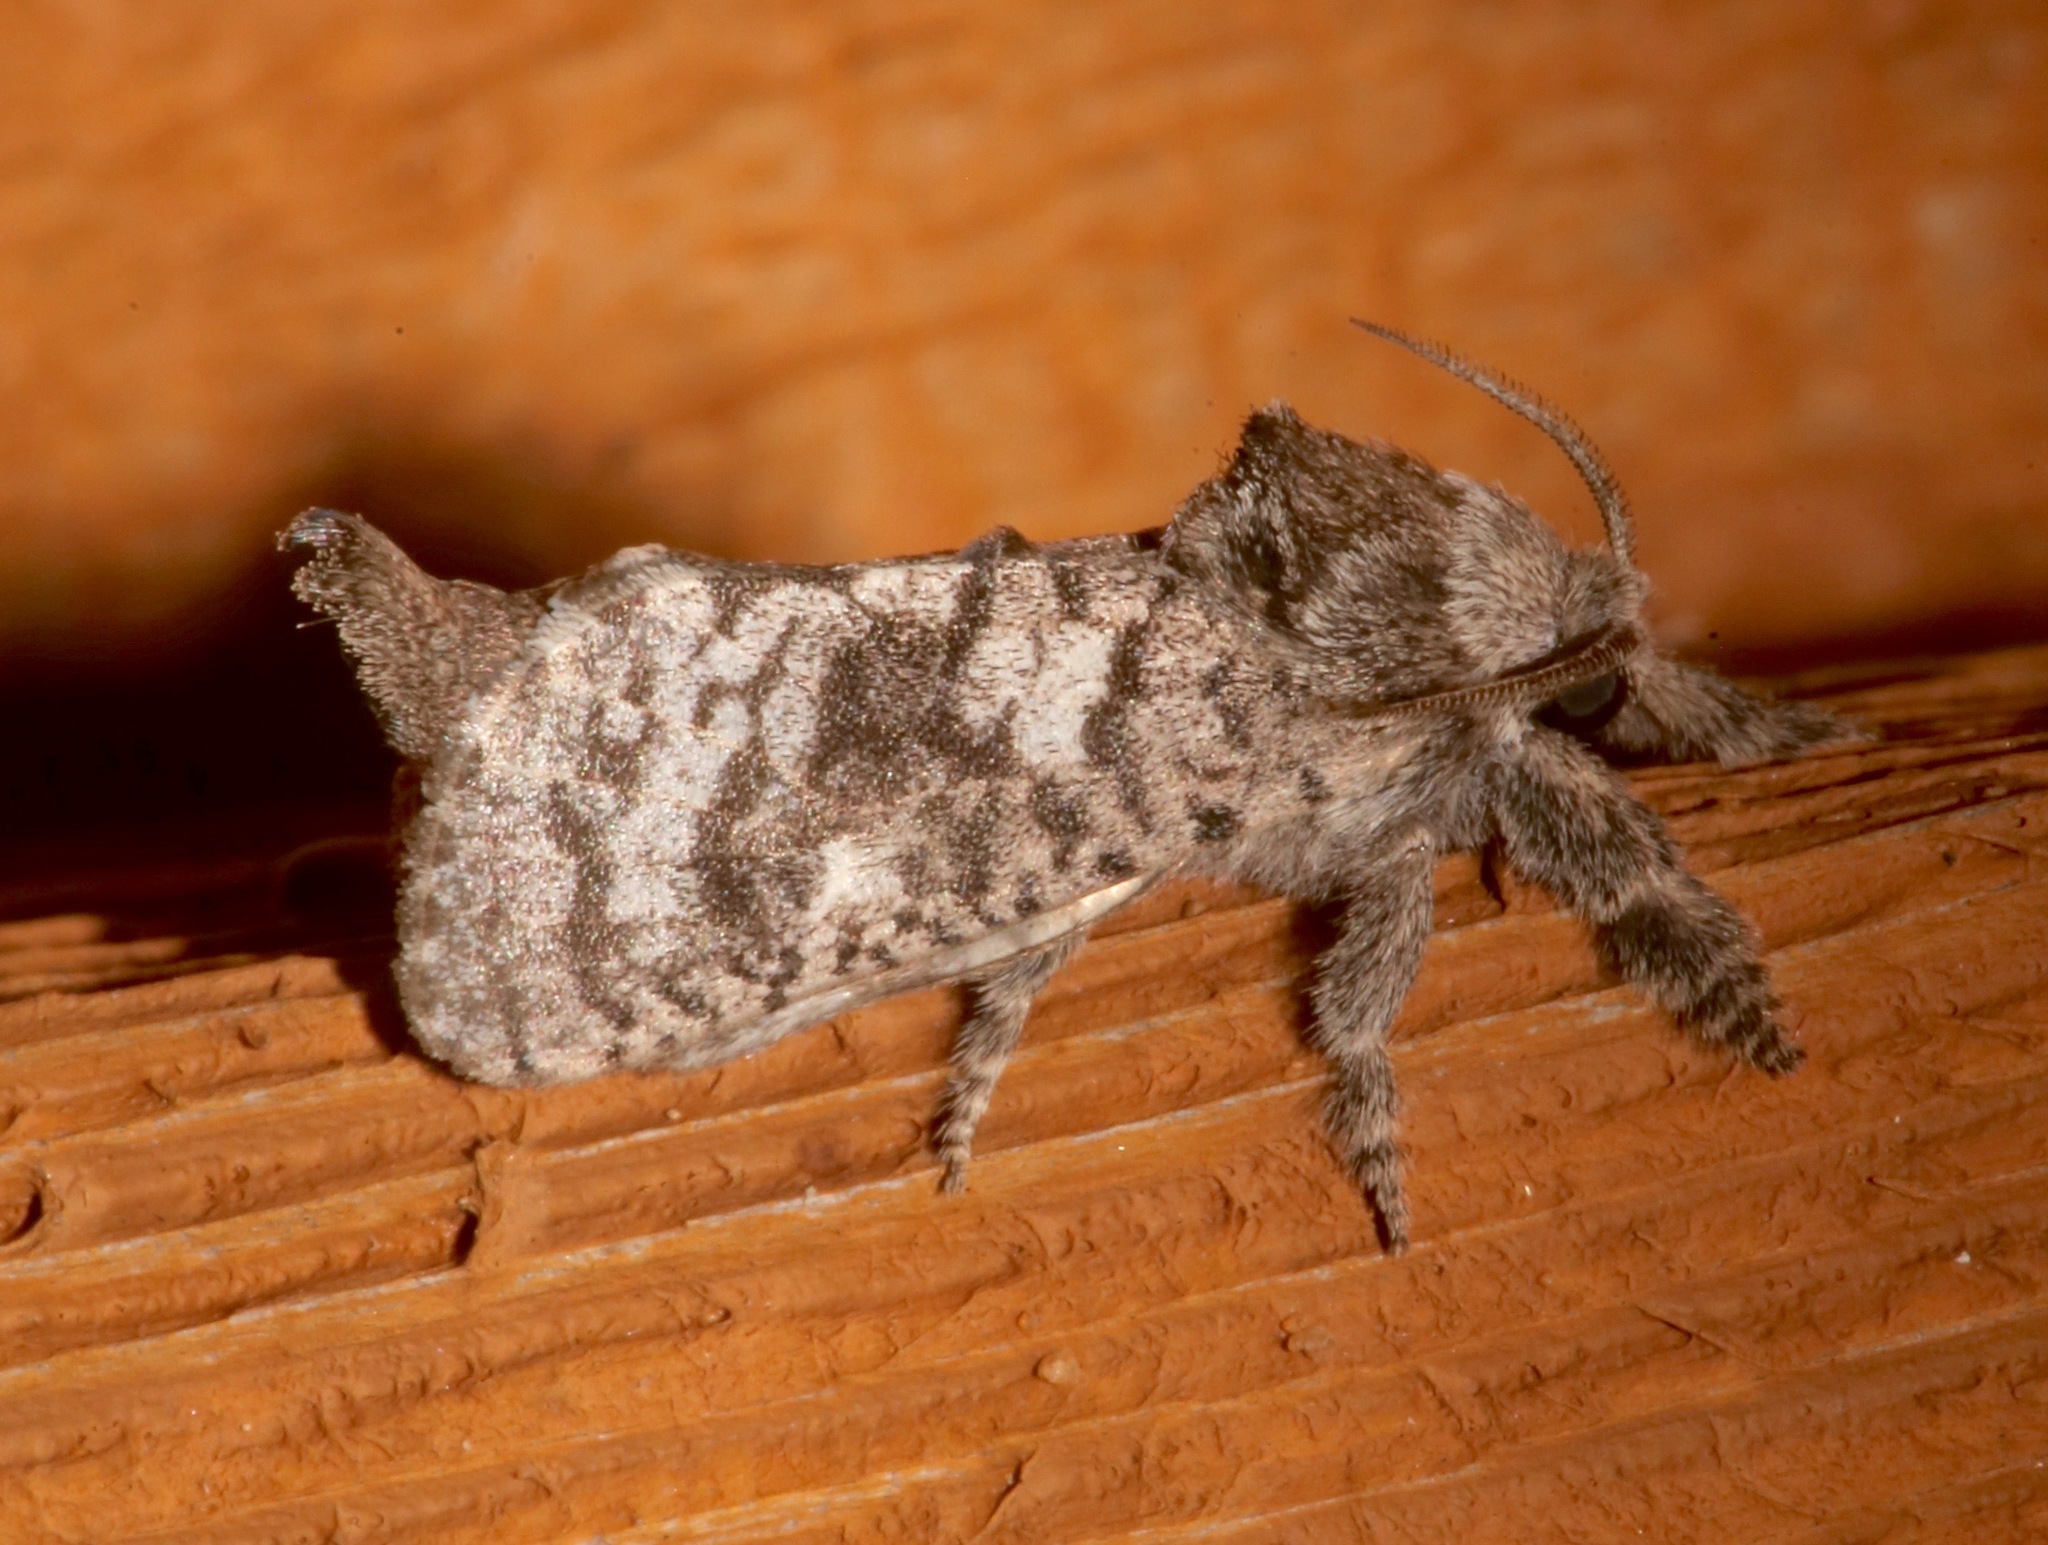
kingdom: Animalia
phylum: Arthropoda
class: Insecta
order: Lepidoptera
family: Cossidae
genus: Givira
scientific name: Givira francesca
